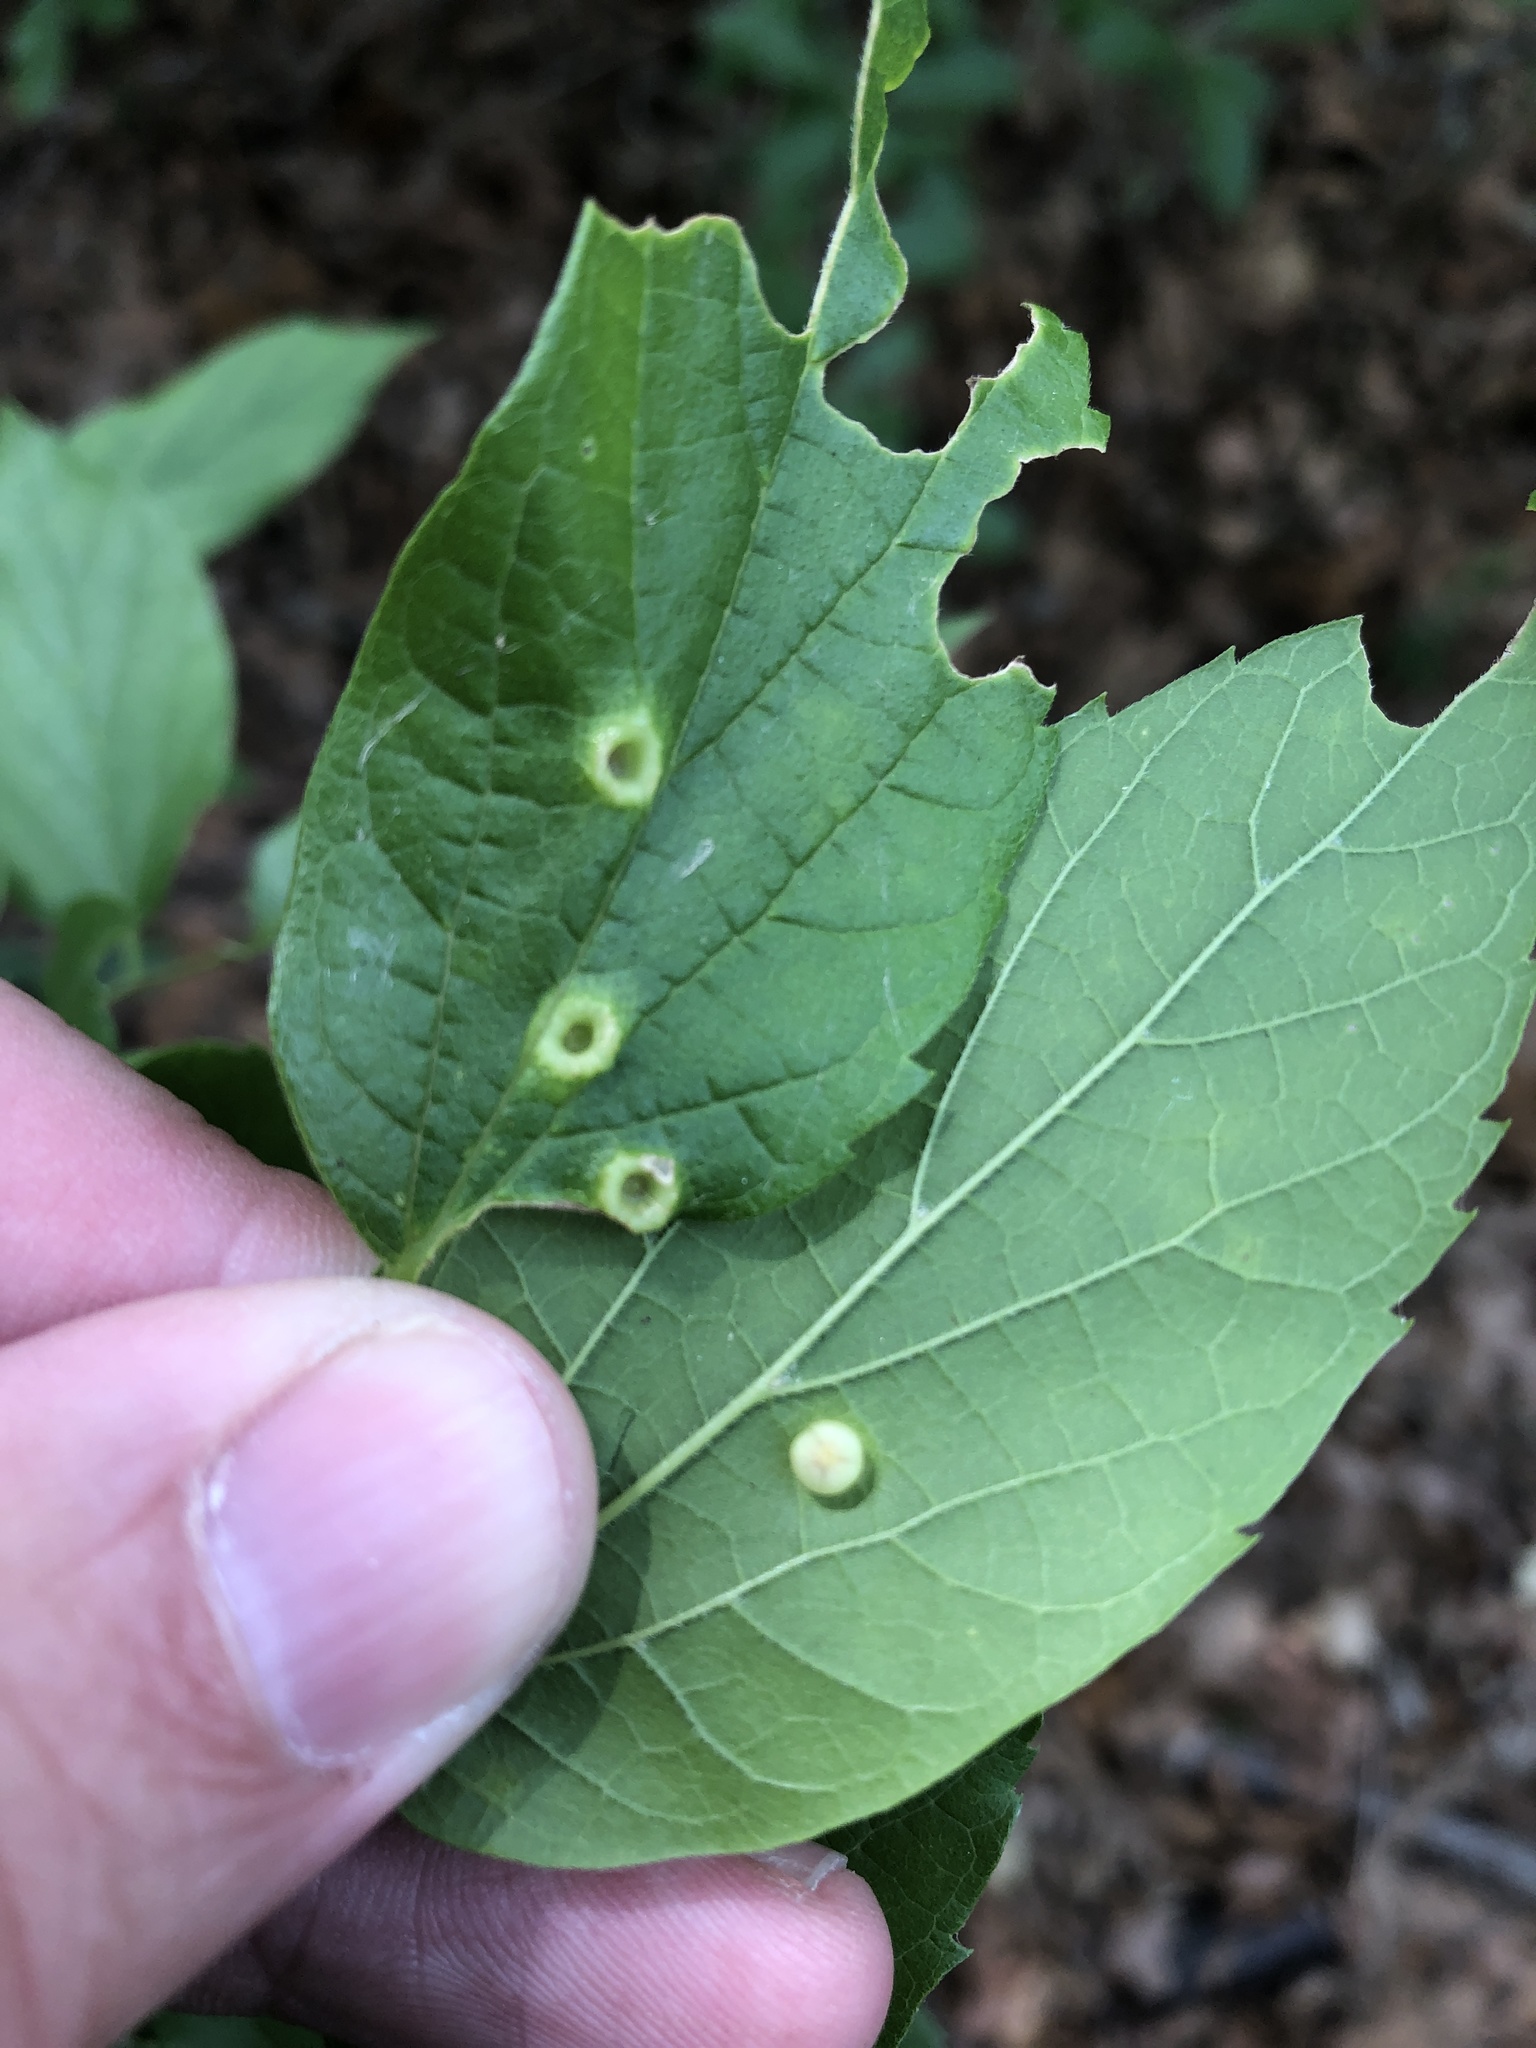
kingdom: Animalia
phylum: Arthropoda
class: Insecta
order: Hemiptera
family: Aphalaridae
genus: Pachypsylla
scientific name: Pachypsylla celtidismamma
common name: Hackberry nipplegall psyllid
